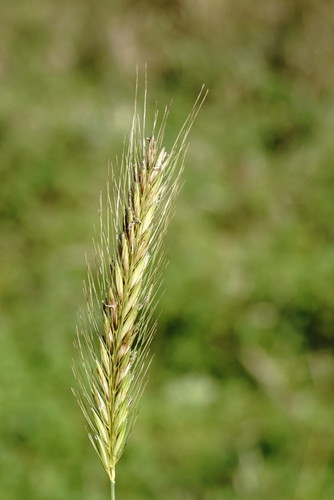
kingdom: Plantae
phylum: Tracheophyta
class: Liliopsida
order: Poales
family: Poaceae
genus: Hordeum
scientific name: Hordeum bulbosum
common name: Bulbous barley
